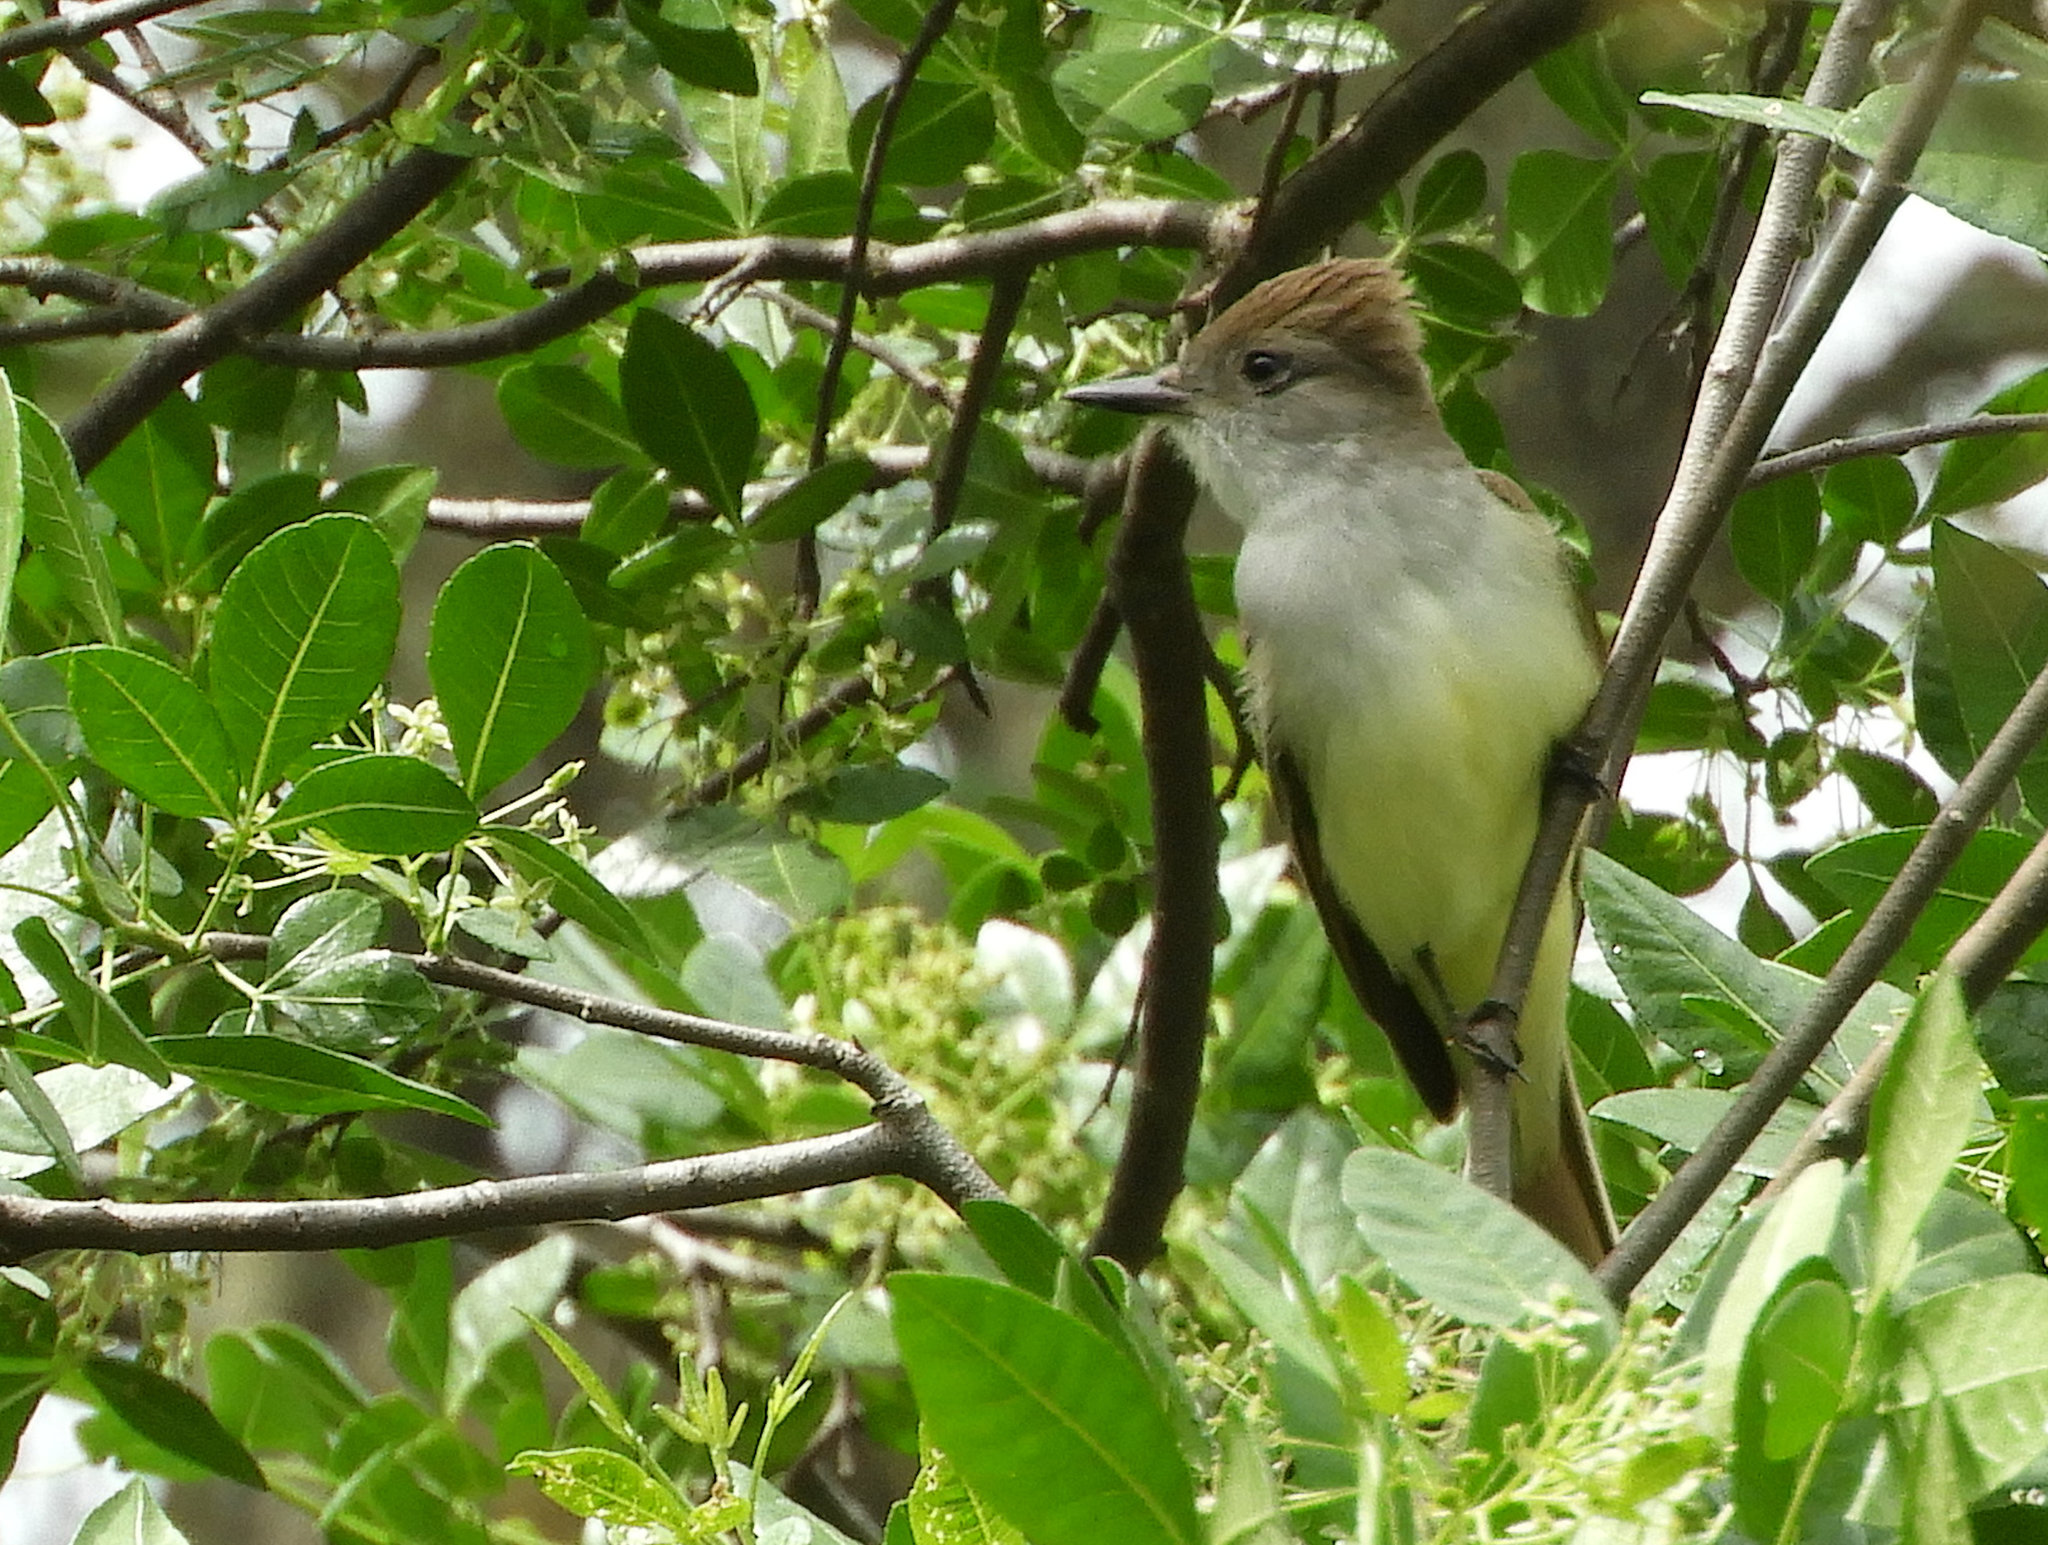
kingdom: Animalia
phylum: Chordata
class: Aves
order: Passeriformes
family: Tyrannidae
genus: Myiarchus
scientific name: Myiarchus cinerascens
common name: Ash-throated flycatcher
